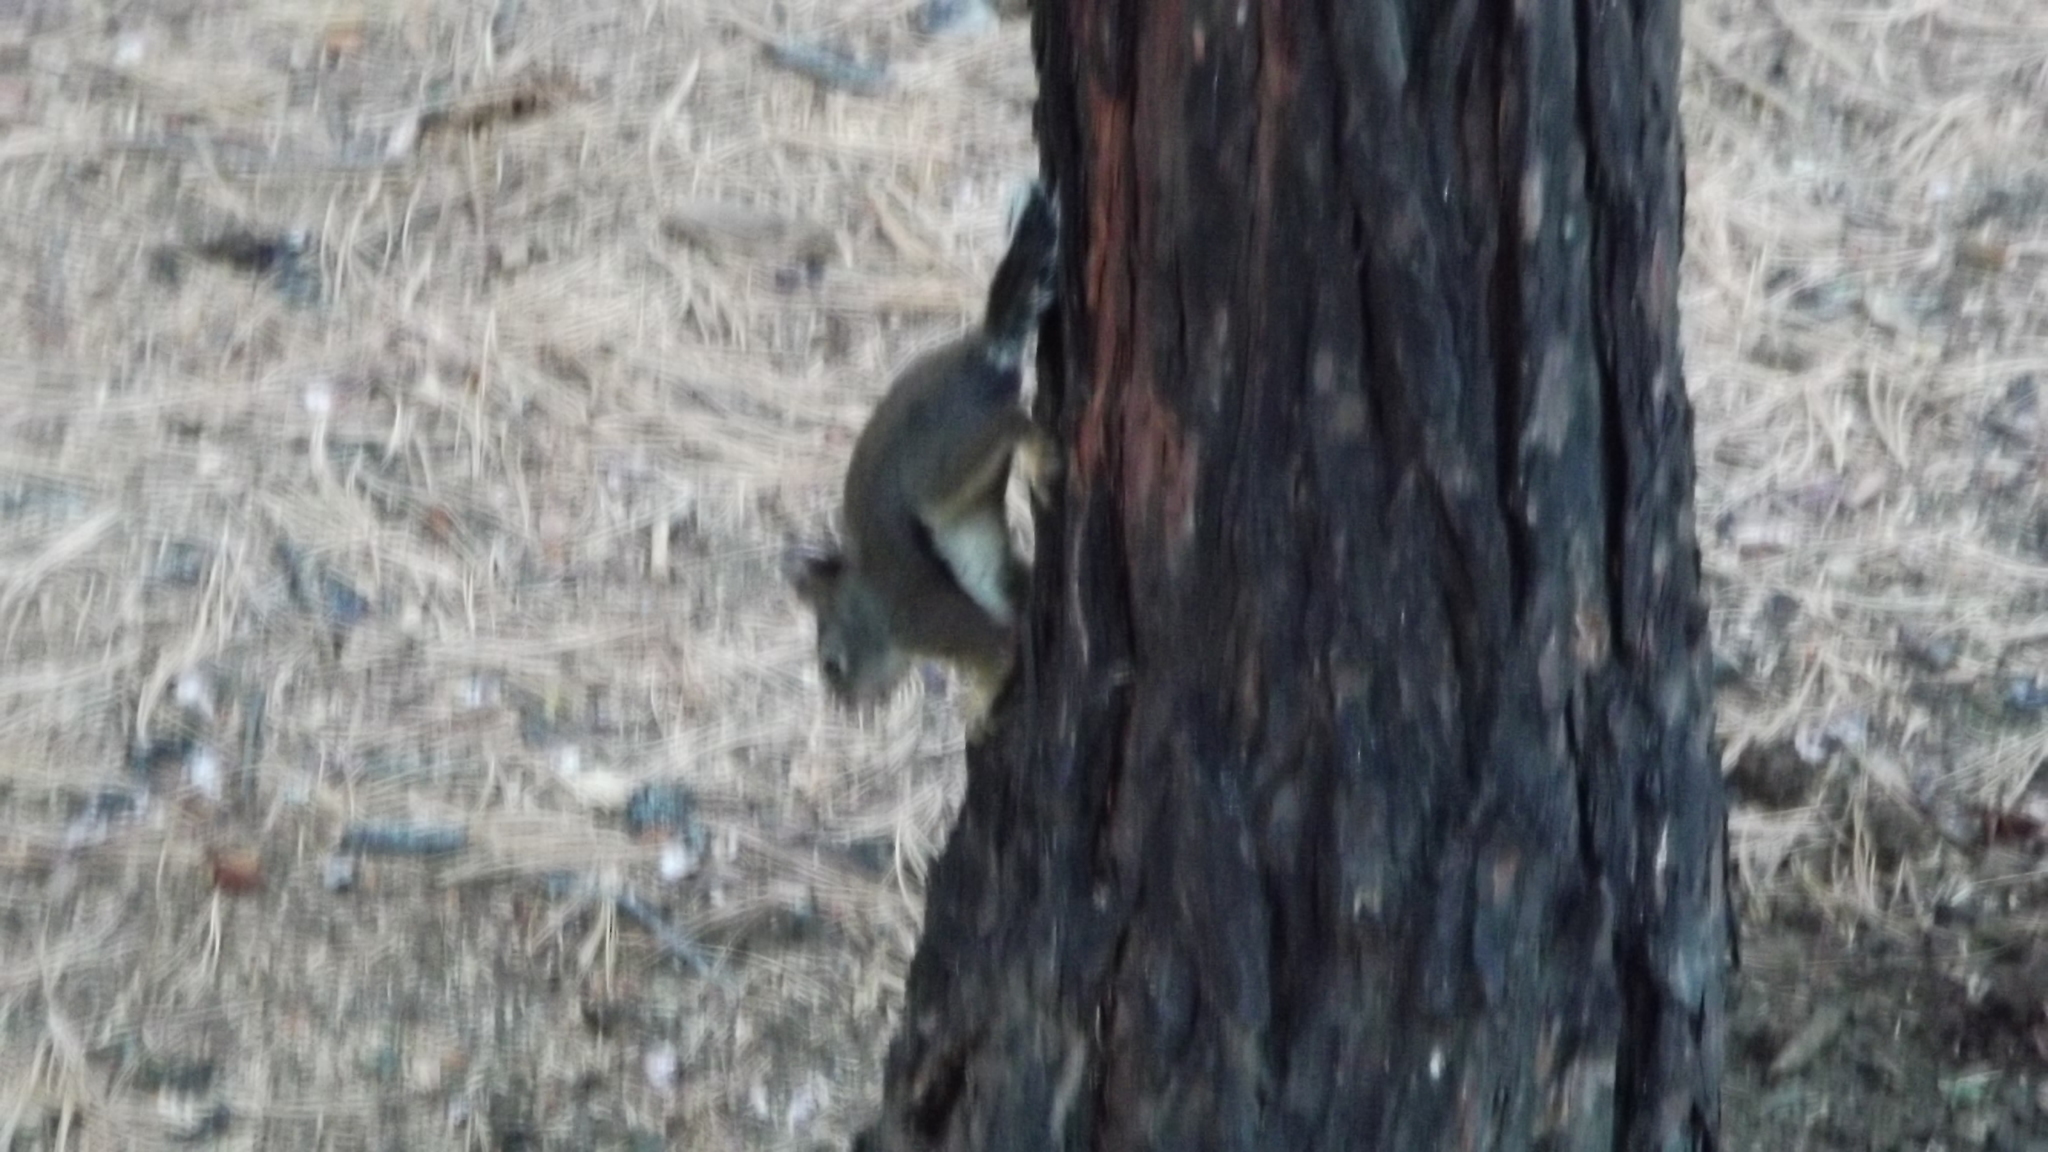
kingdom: Animalia
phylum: Chordata
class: Mammalia
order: Rodentia
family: Sciuridae
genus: Tamiasciurus
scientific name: Tamiasciurus douglasii
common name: Douglas's squirrel
